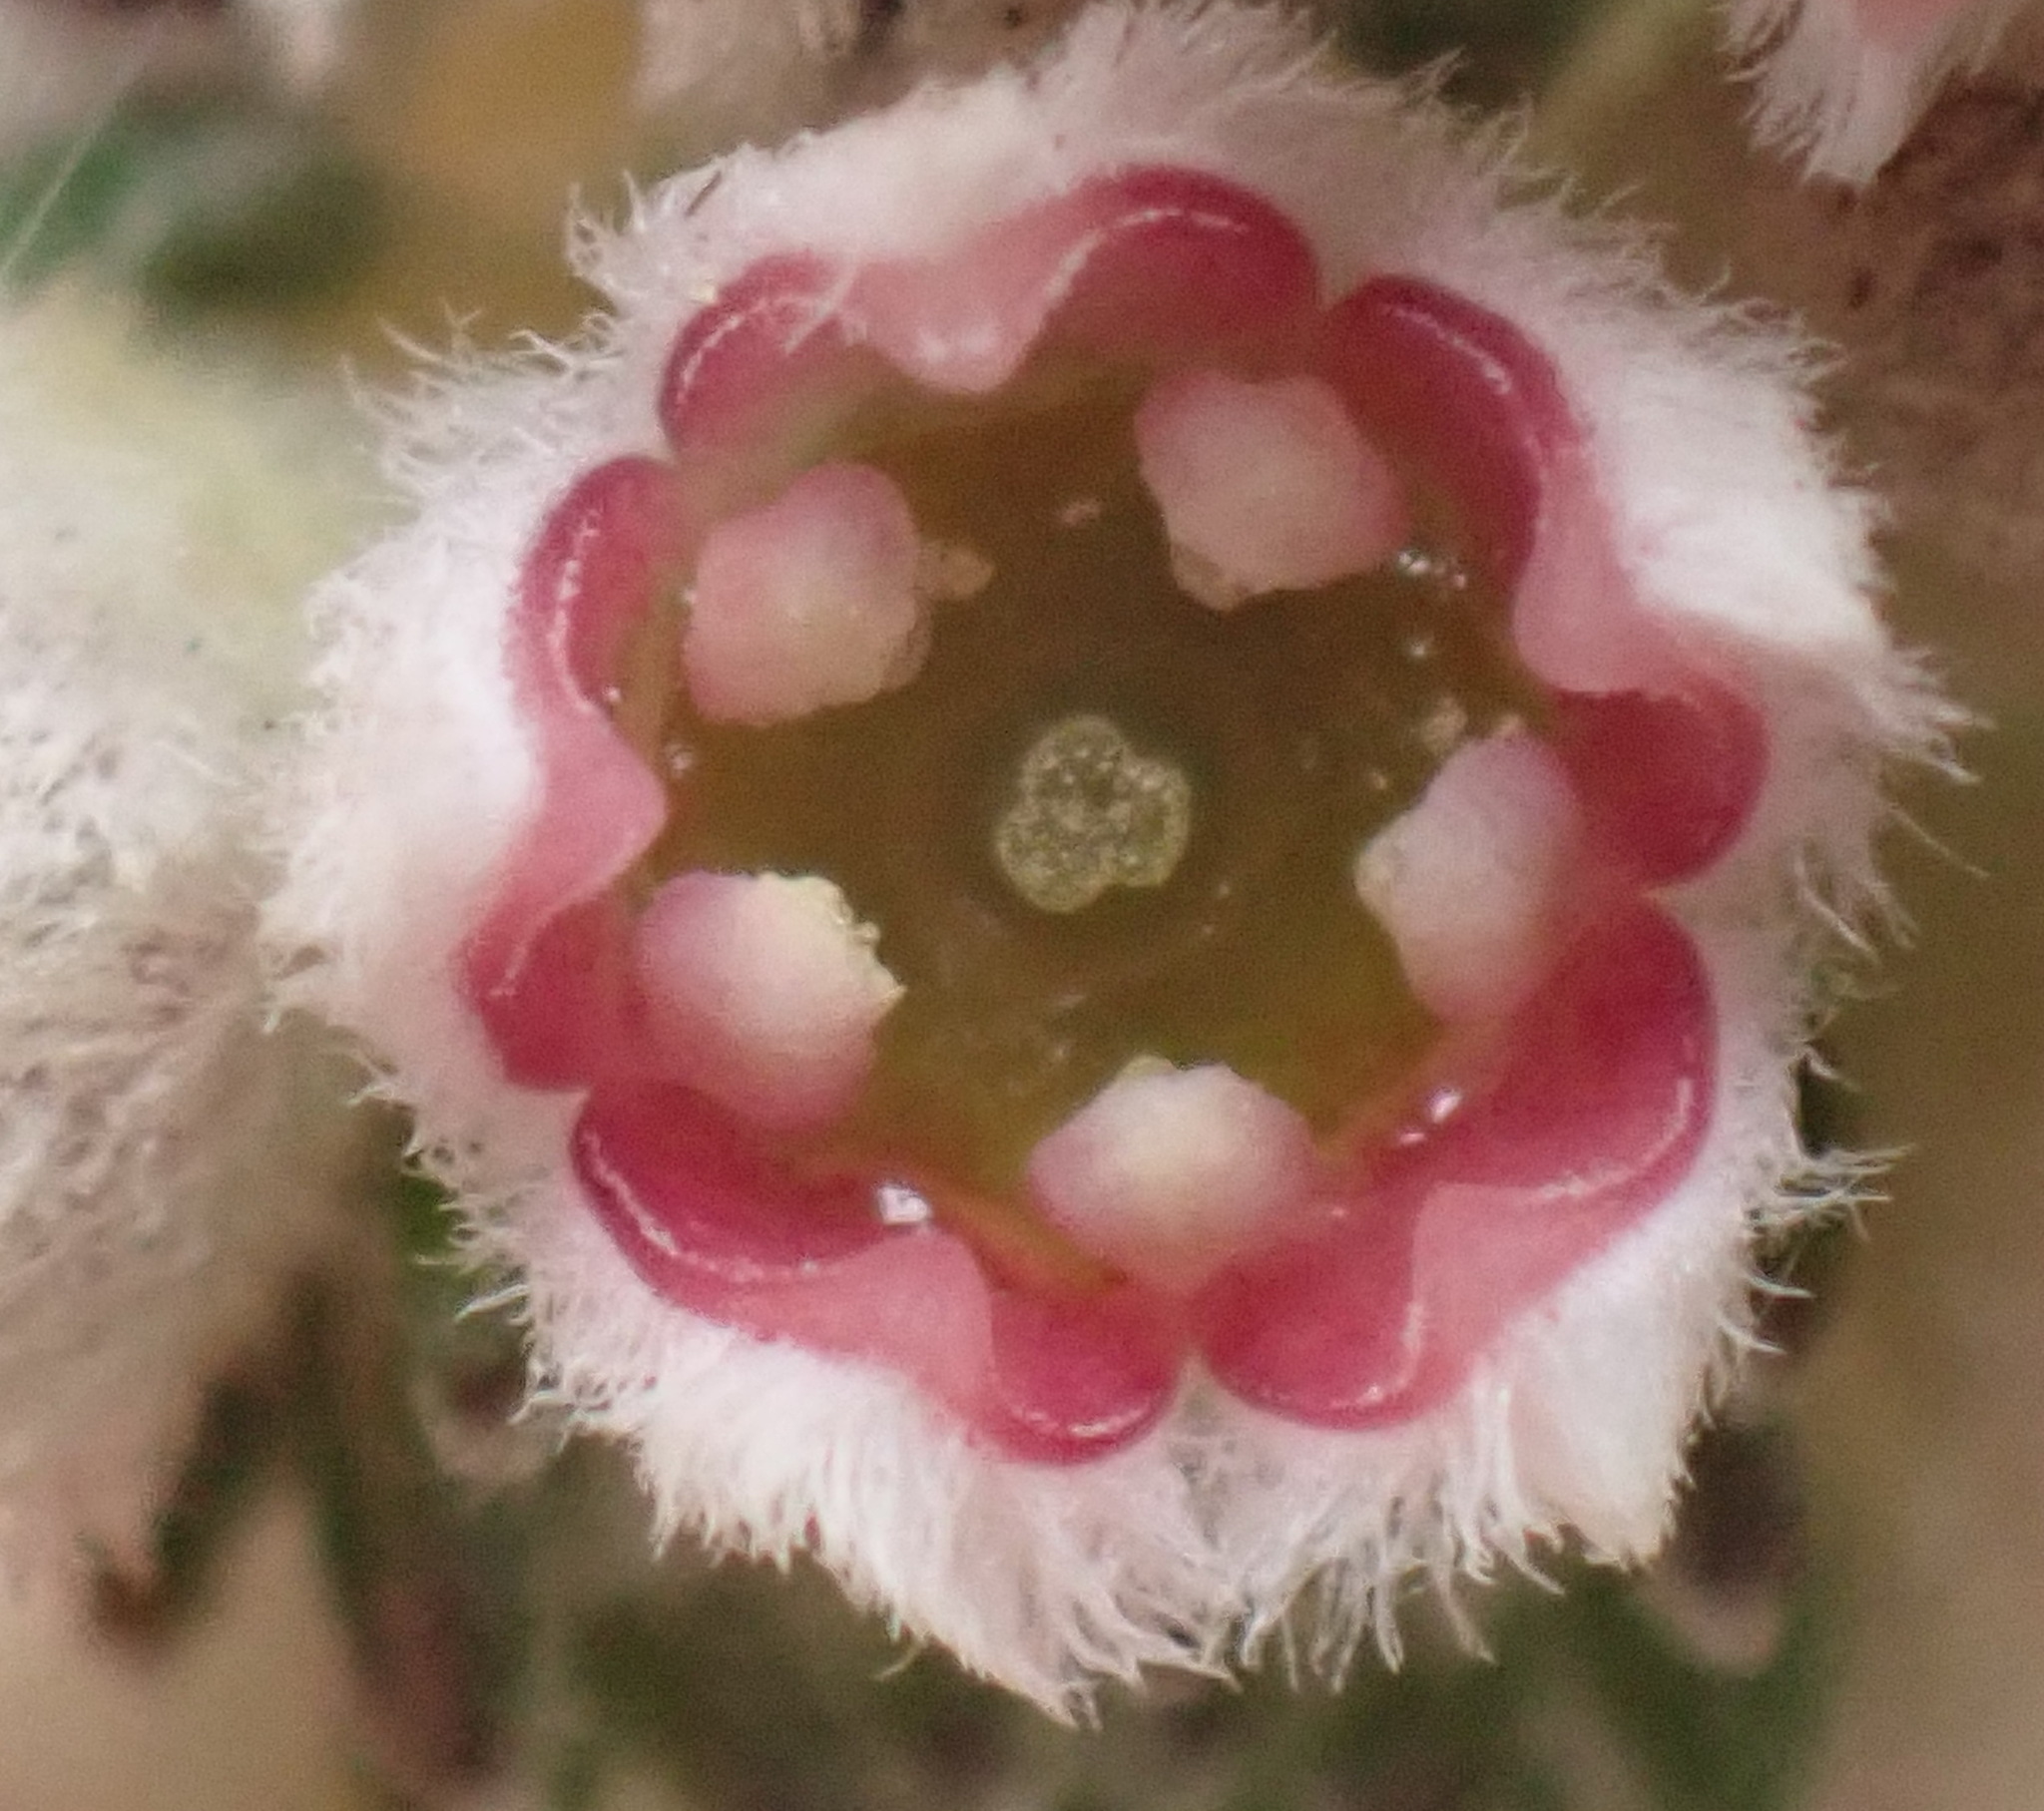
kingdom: Plantae
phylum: Tracheophyta
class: Magnoliopsida
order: Rosales
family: Rhamnaceae
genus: Phylica
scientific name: Phylica purpurea
